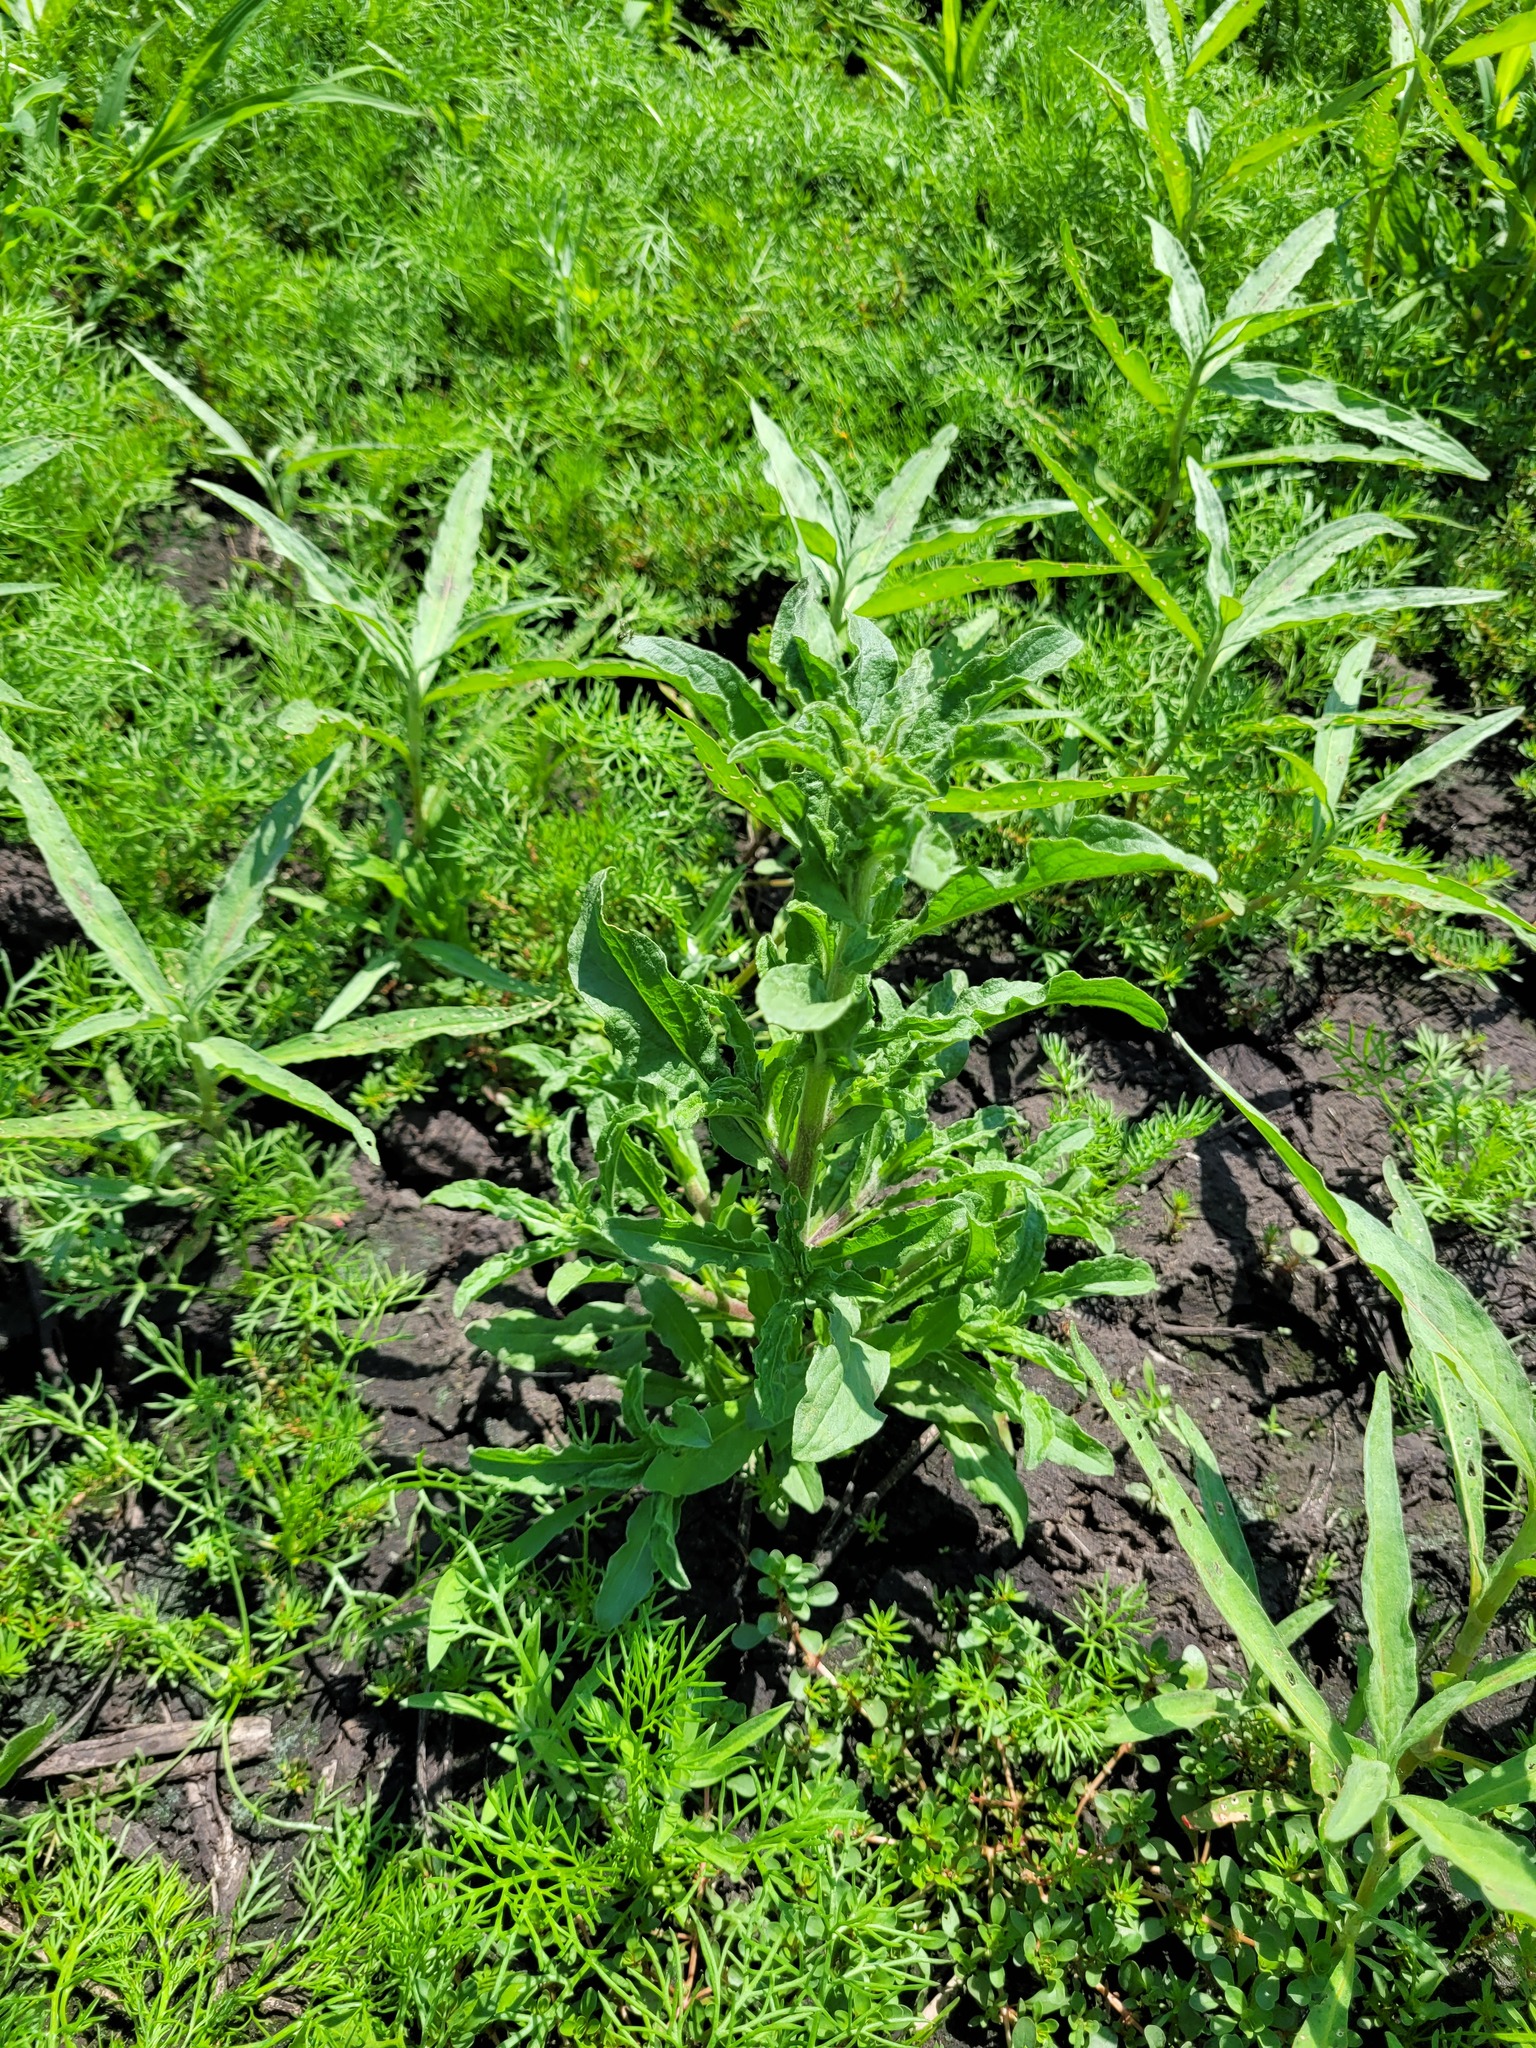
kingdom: Plantae
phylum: Tracheophyta
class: Magnoliopsida
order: Asterales
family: Asteraceae
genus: Pulicaria
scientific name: Pulicaria vulgaris
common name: Small fleabane
